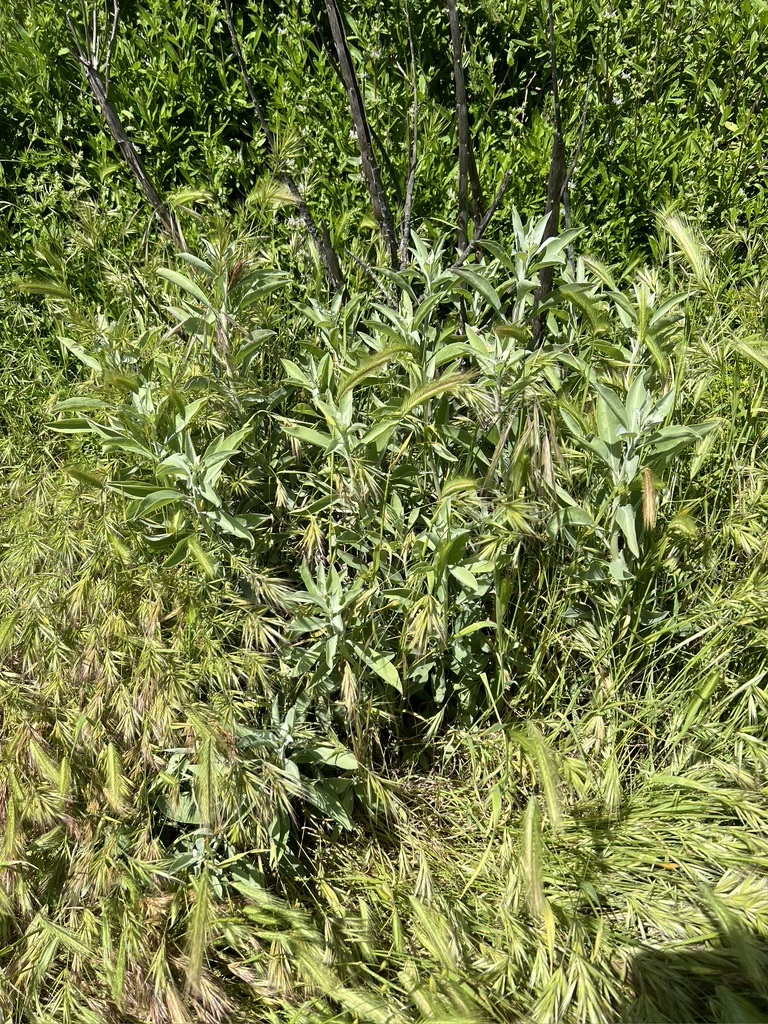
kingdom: Plantae
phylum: Tracheophyta
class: Magnoliopsida
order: Lamiales
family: Lamiaceae
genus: Salvia
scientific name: Salvia apiana
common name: White sage
